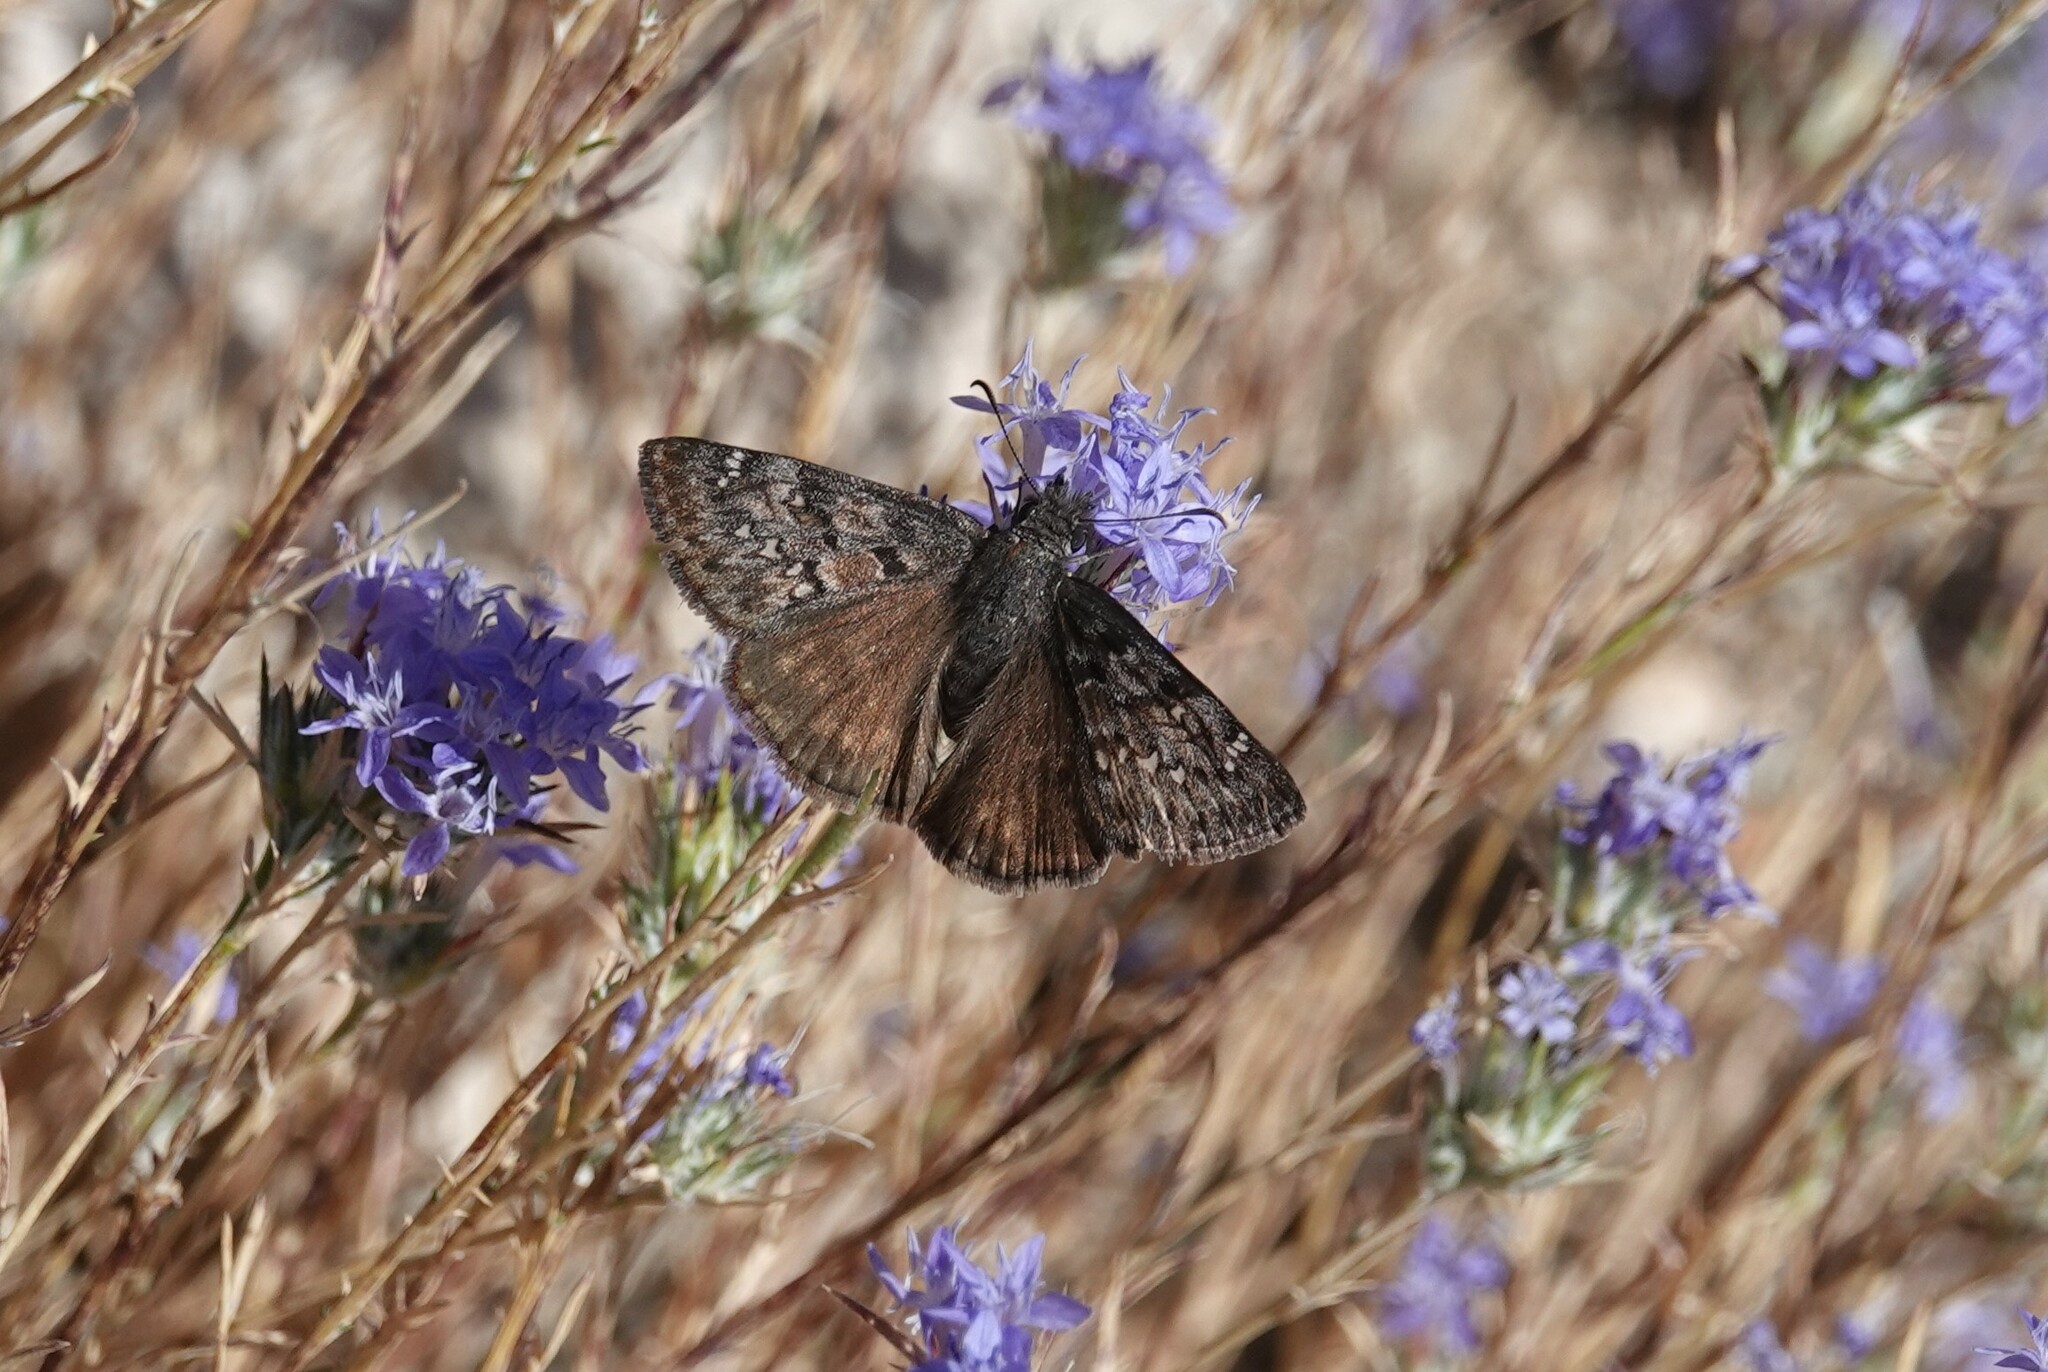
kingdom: Animalia
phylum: Arthropoda
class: Insecta
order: Lepidoptera
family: Hesperiidae
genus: Erynnis
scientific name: Erynnis propertius
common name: Propertius duskywing
